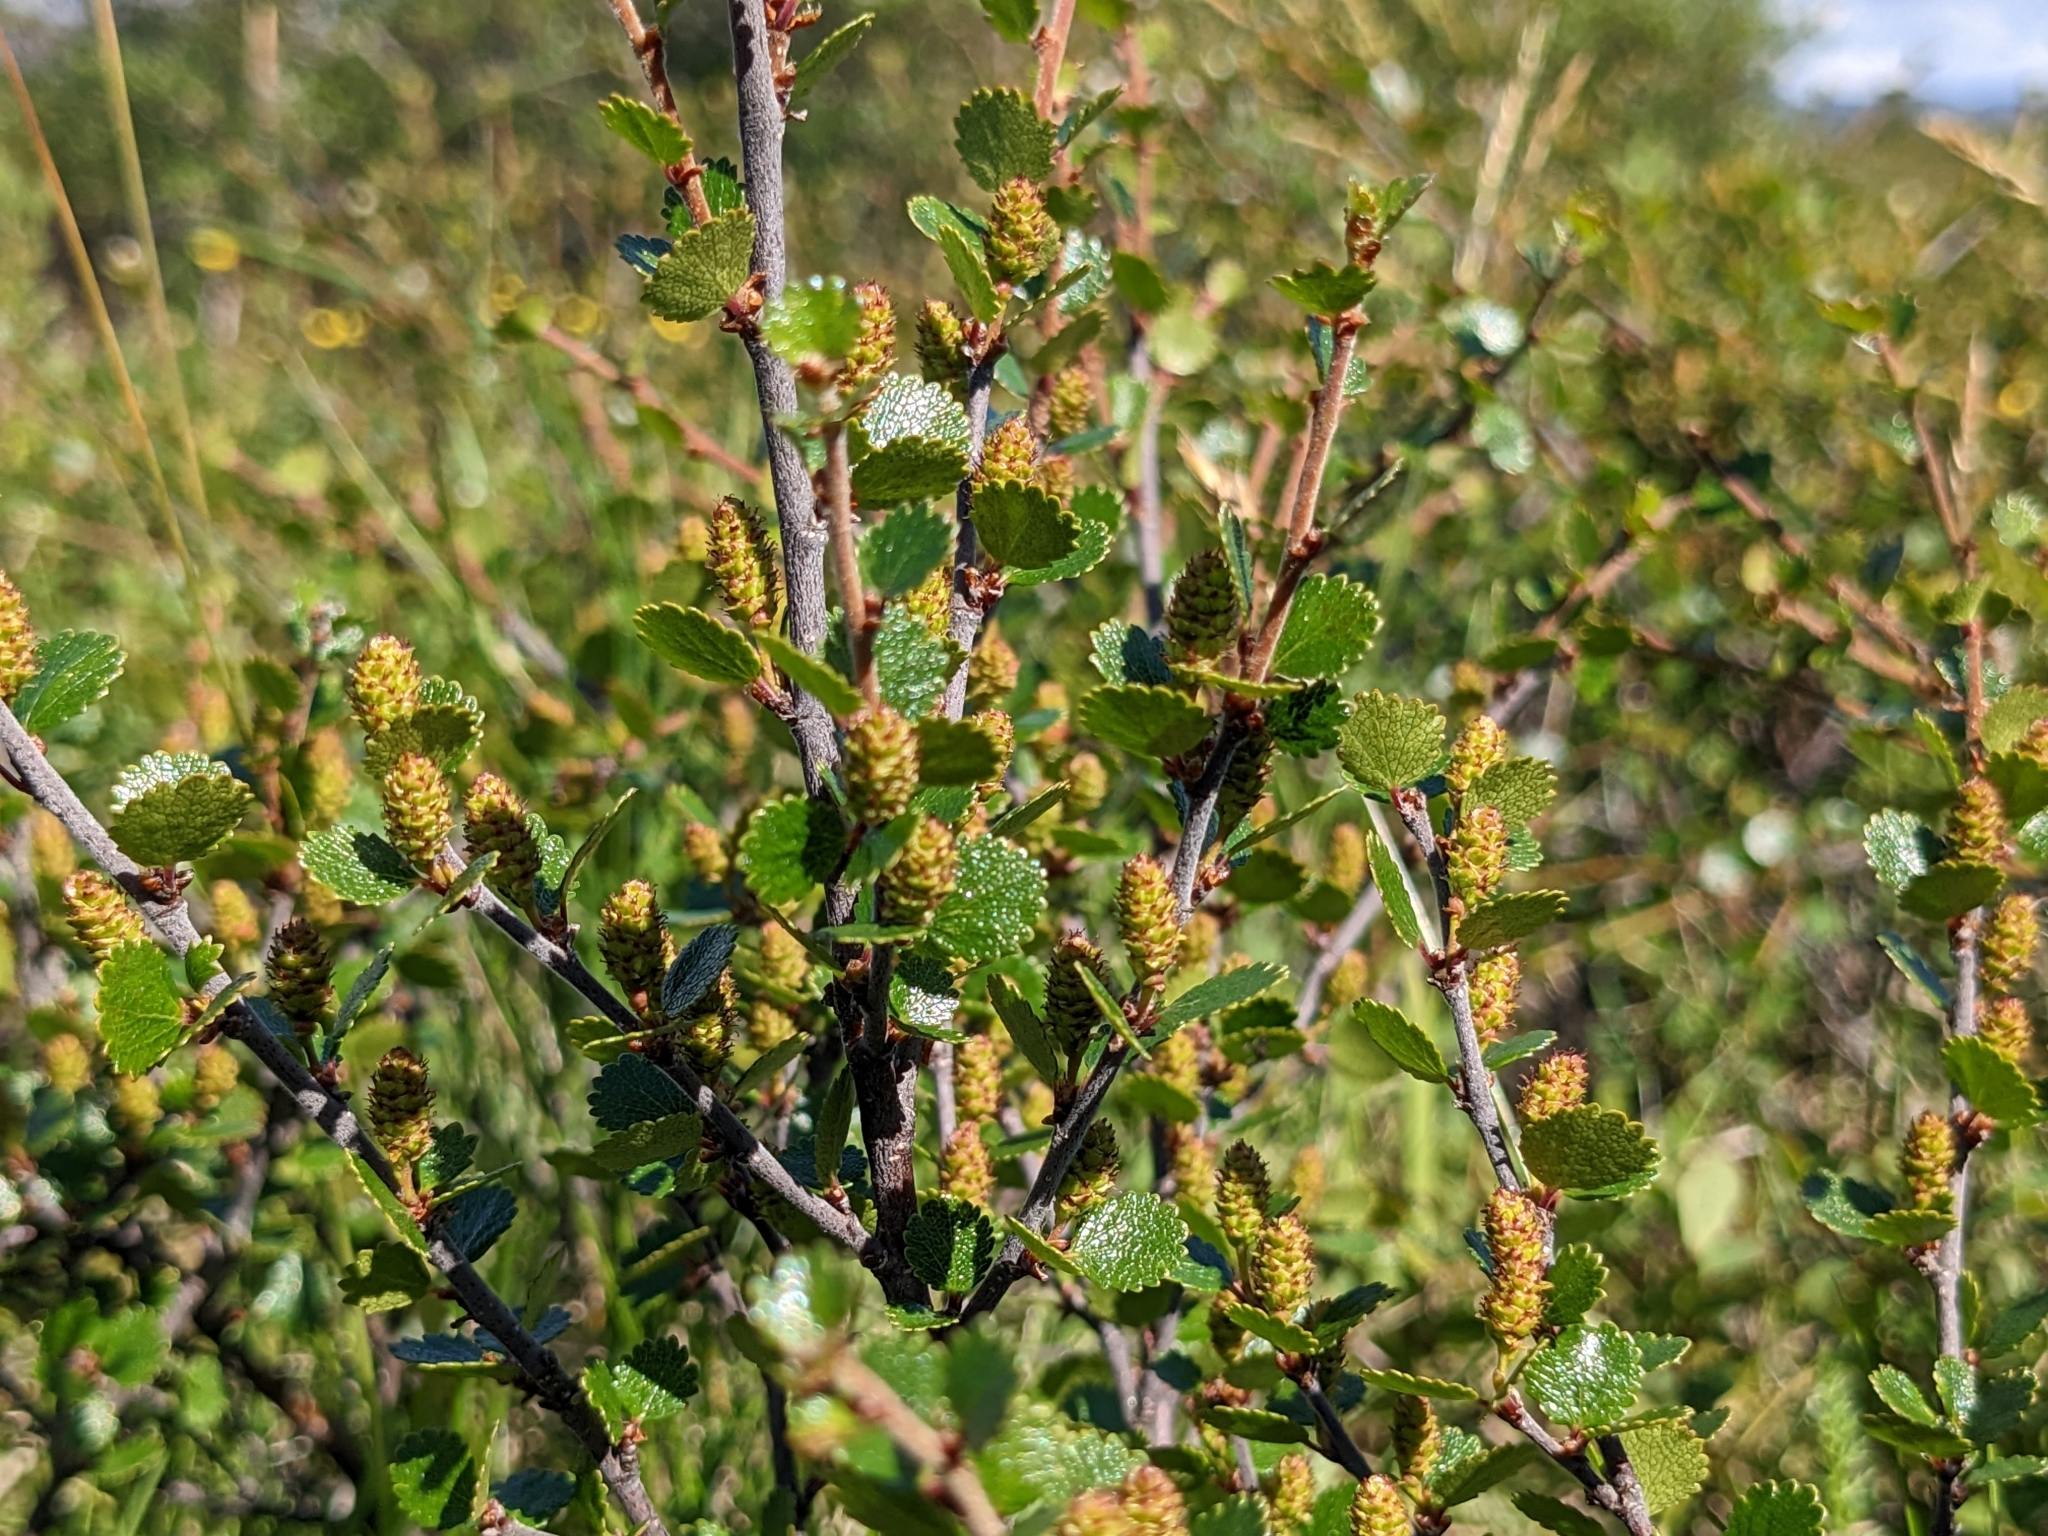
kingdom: Plantae
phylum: Tracheophyta
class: Magnoliopsida
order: Fagales
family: Betulaceae
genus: Betula
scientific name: Betula nana
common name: Arctic dwarf birch
